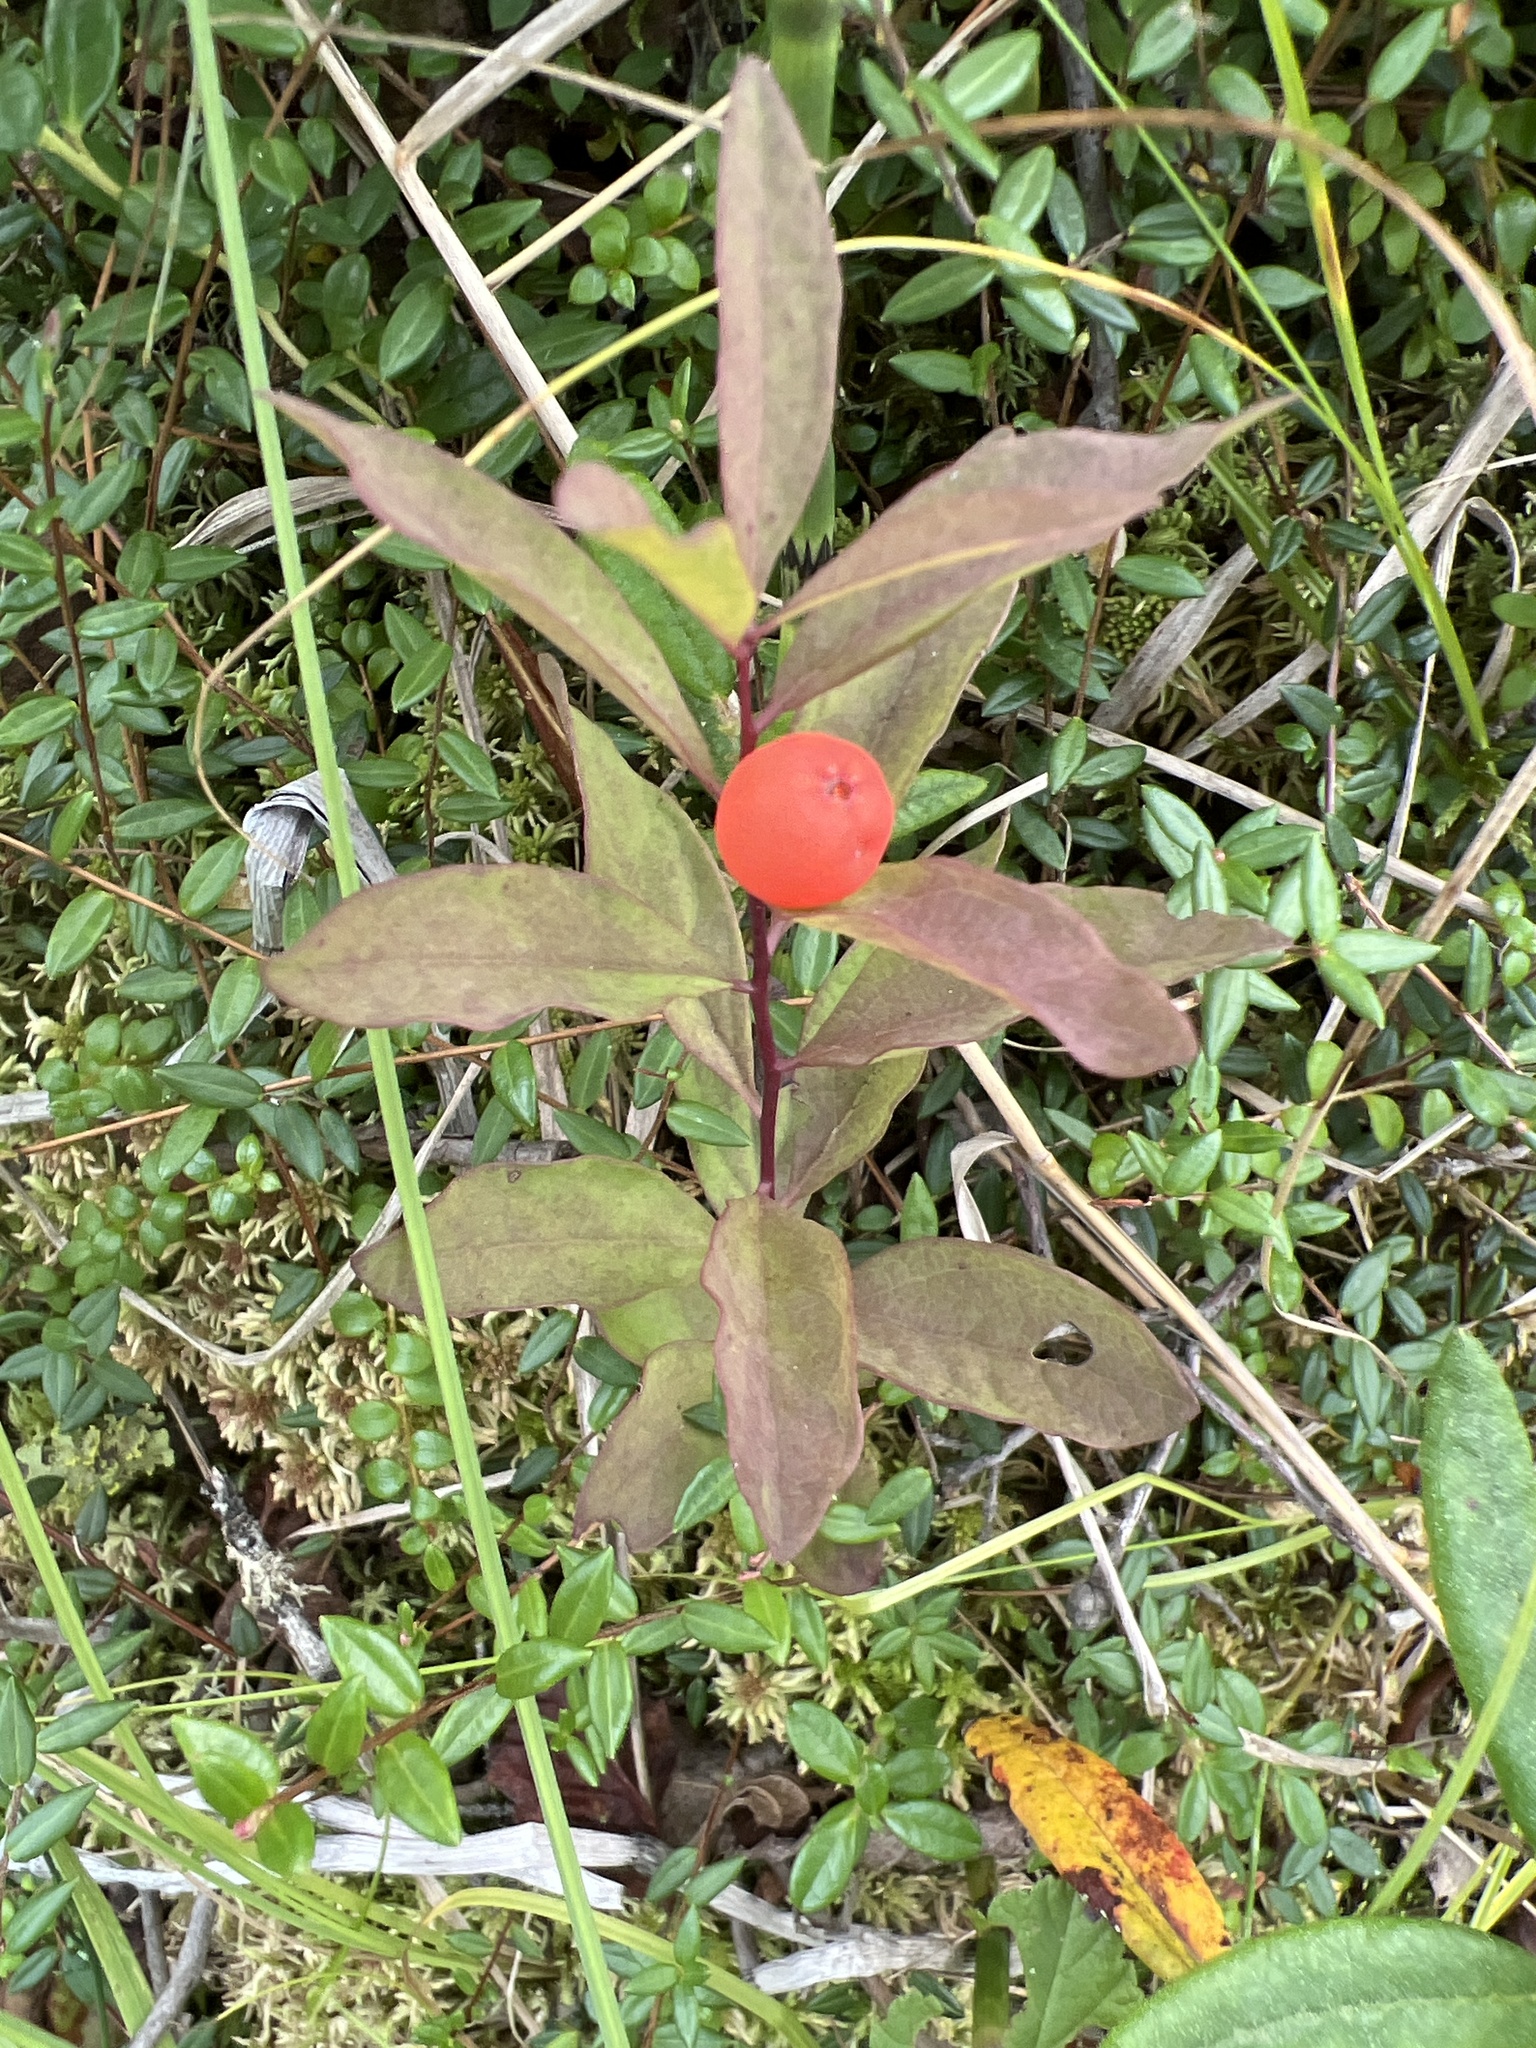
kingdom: Plantae
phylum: Tracheophyta
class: Magnoliopsida
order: Santalales
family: Comandraceae
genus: Geocaulon
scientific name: Geocaulon lividum
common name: Earthberry
